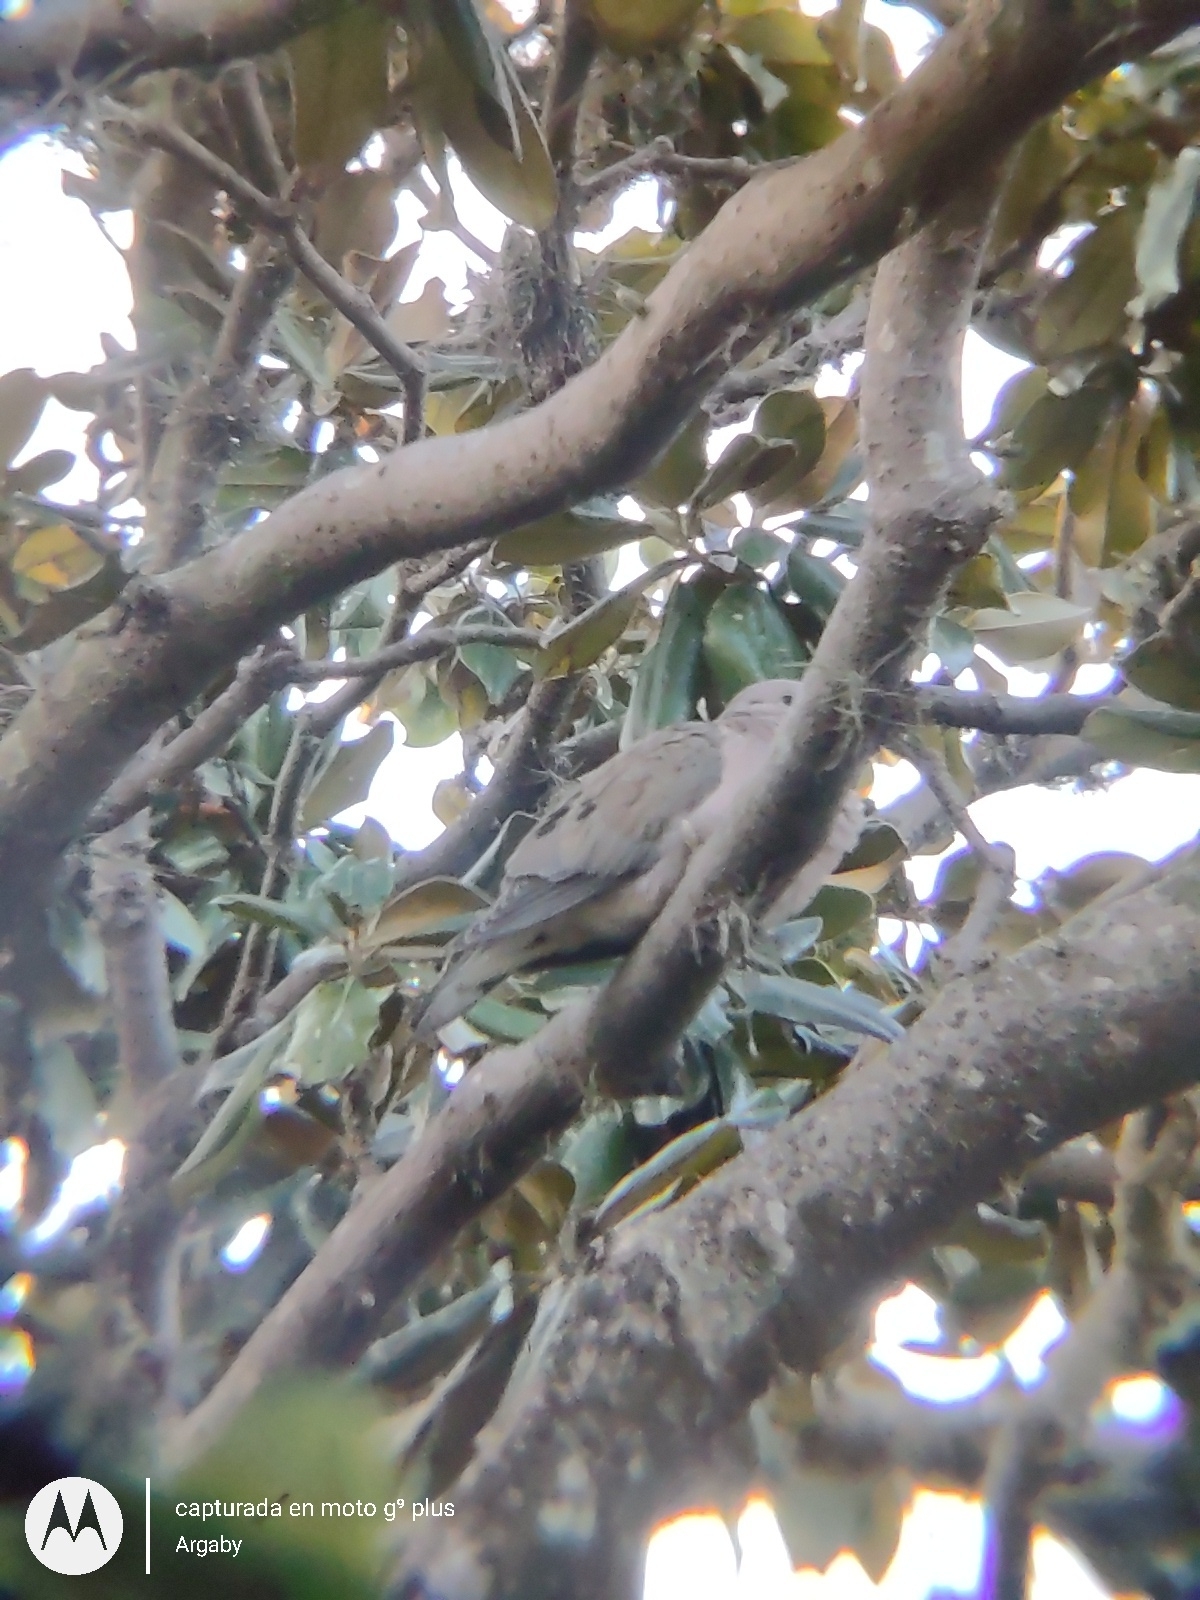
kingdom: Animalia
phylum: Chordata
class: Aves
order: Columbiformes
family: Columbidae
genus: Zenaida
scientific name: Zenaida auriculata
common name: Eared dove
